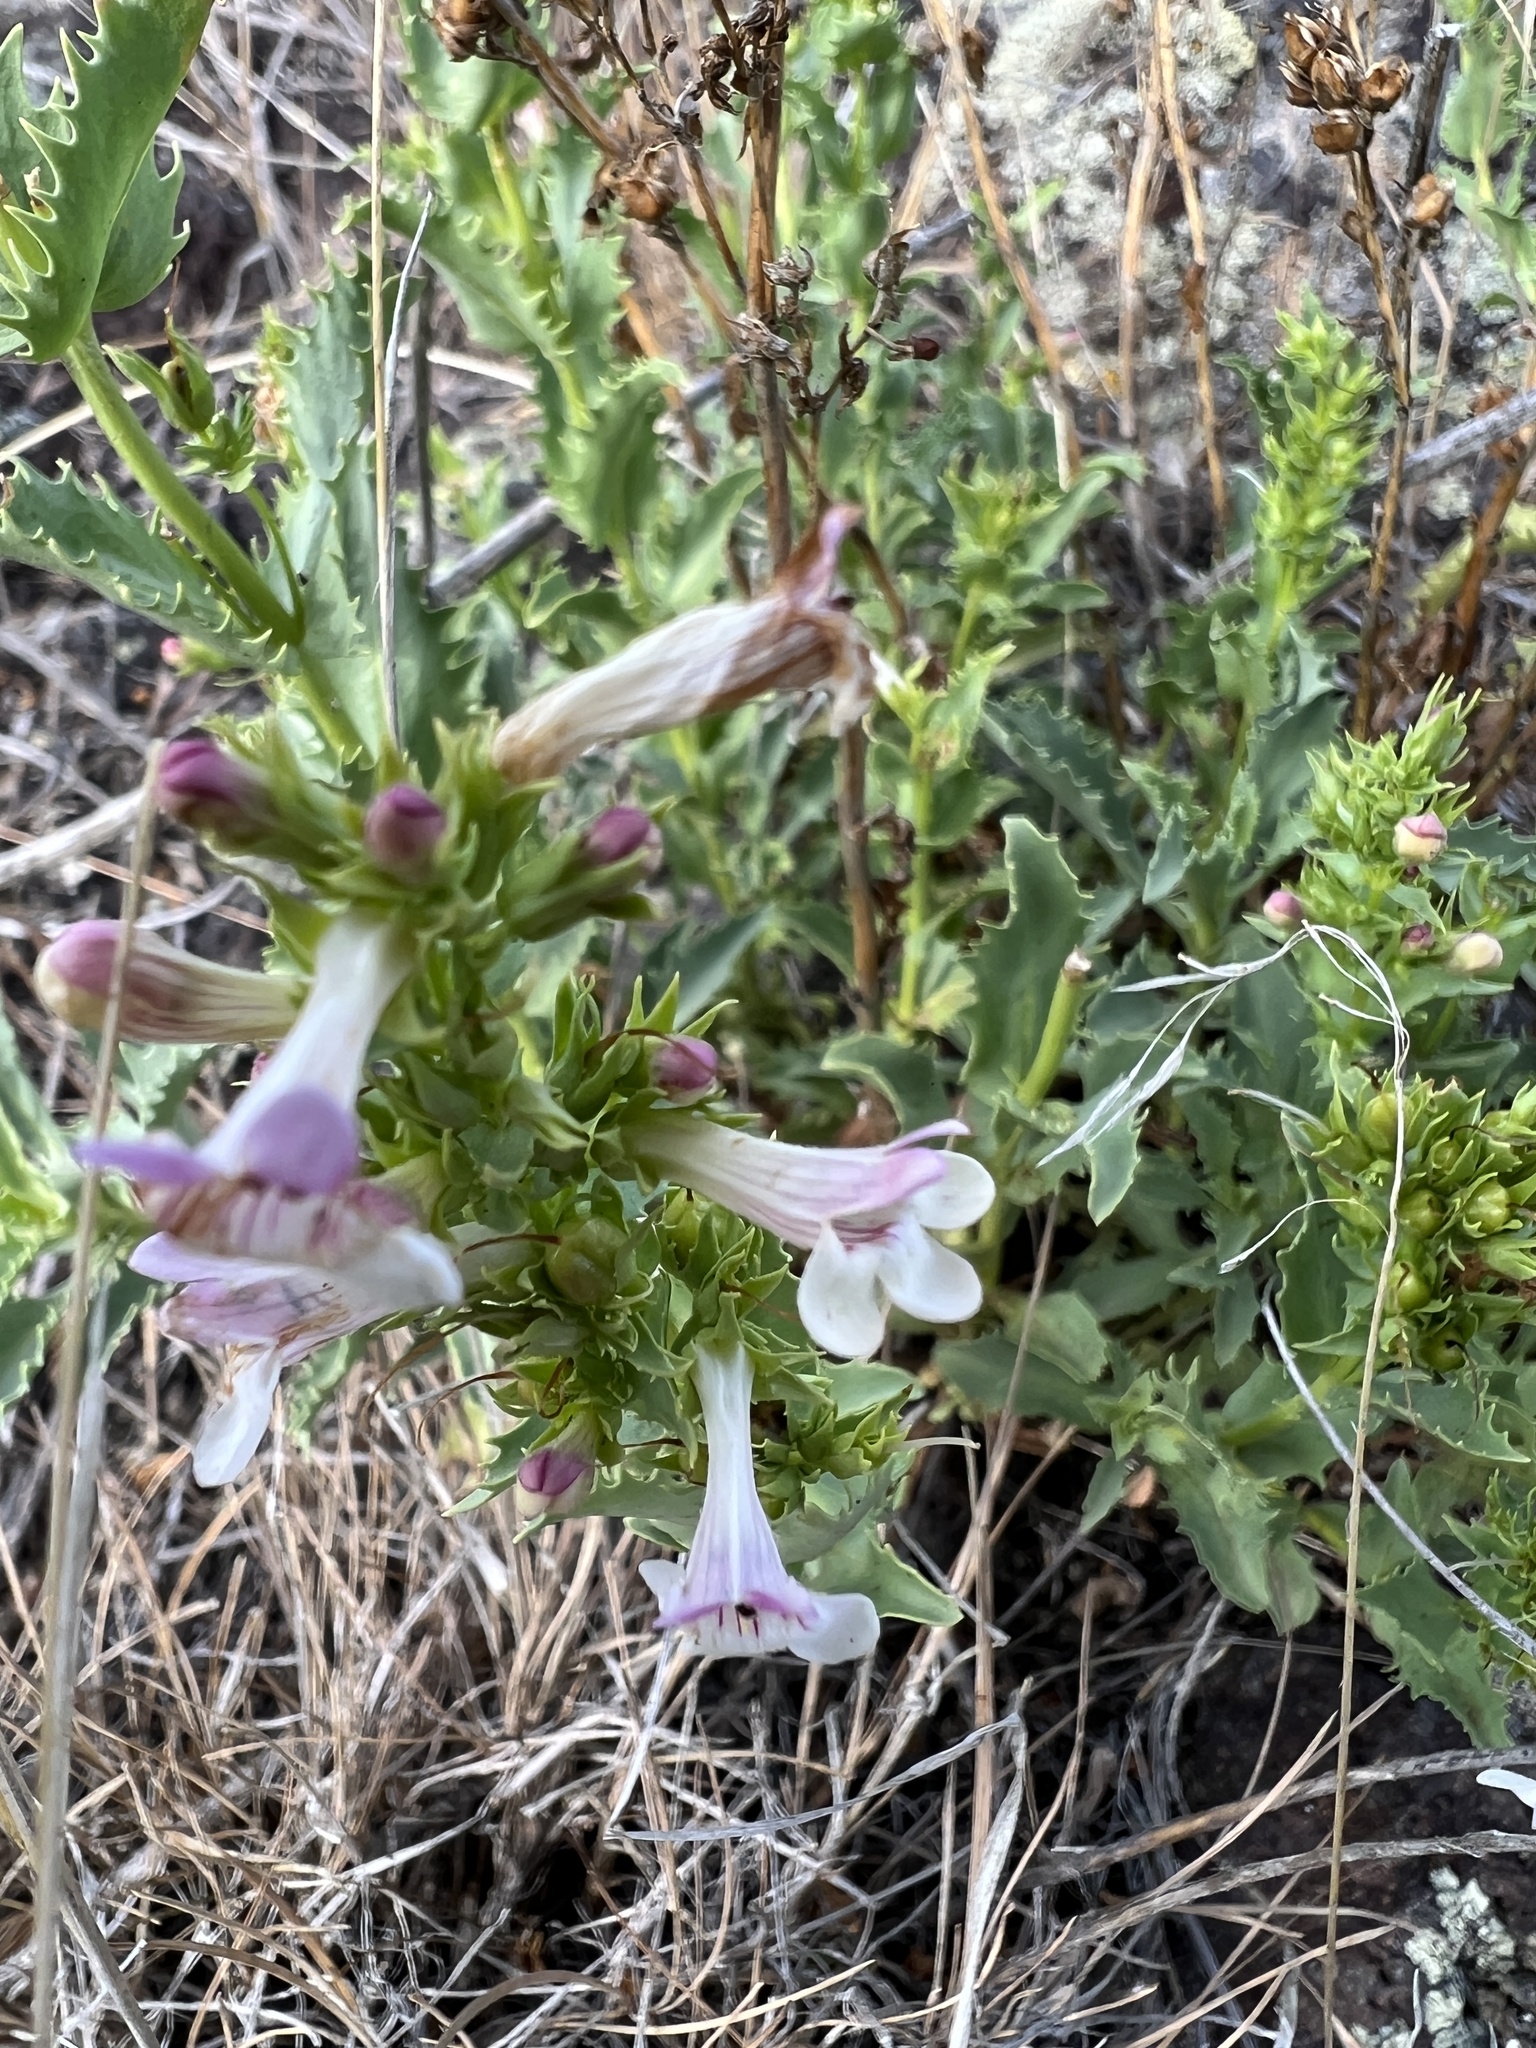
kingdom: Plantae
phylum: Tracheophyta
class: Magnoliopsida
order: Lamiales
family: Plantaginaceae
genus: Penstemon
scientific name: Penstemon deustus
